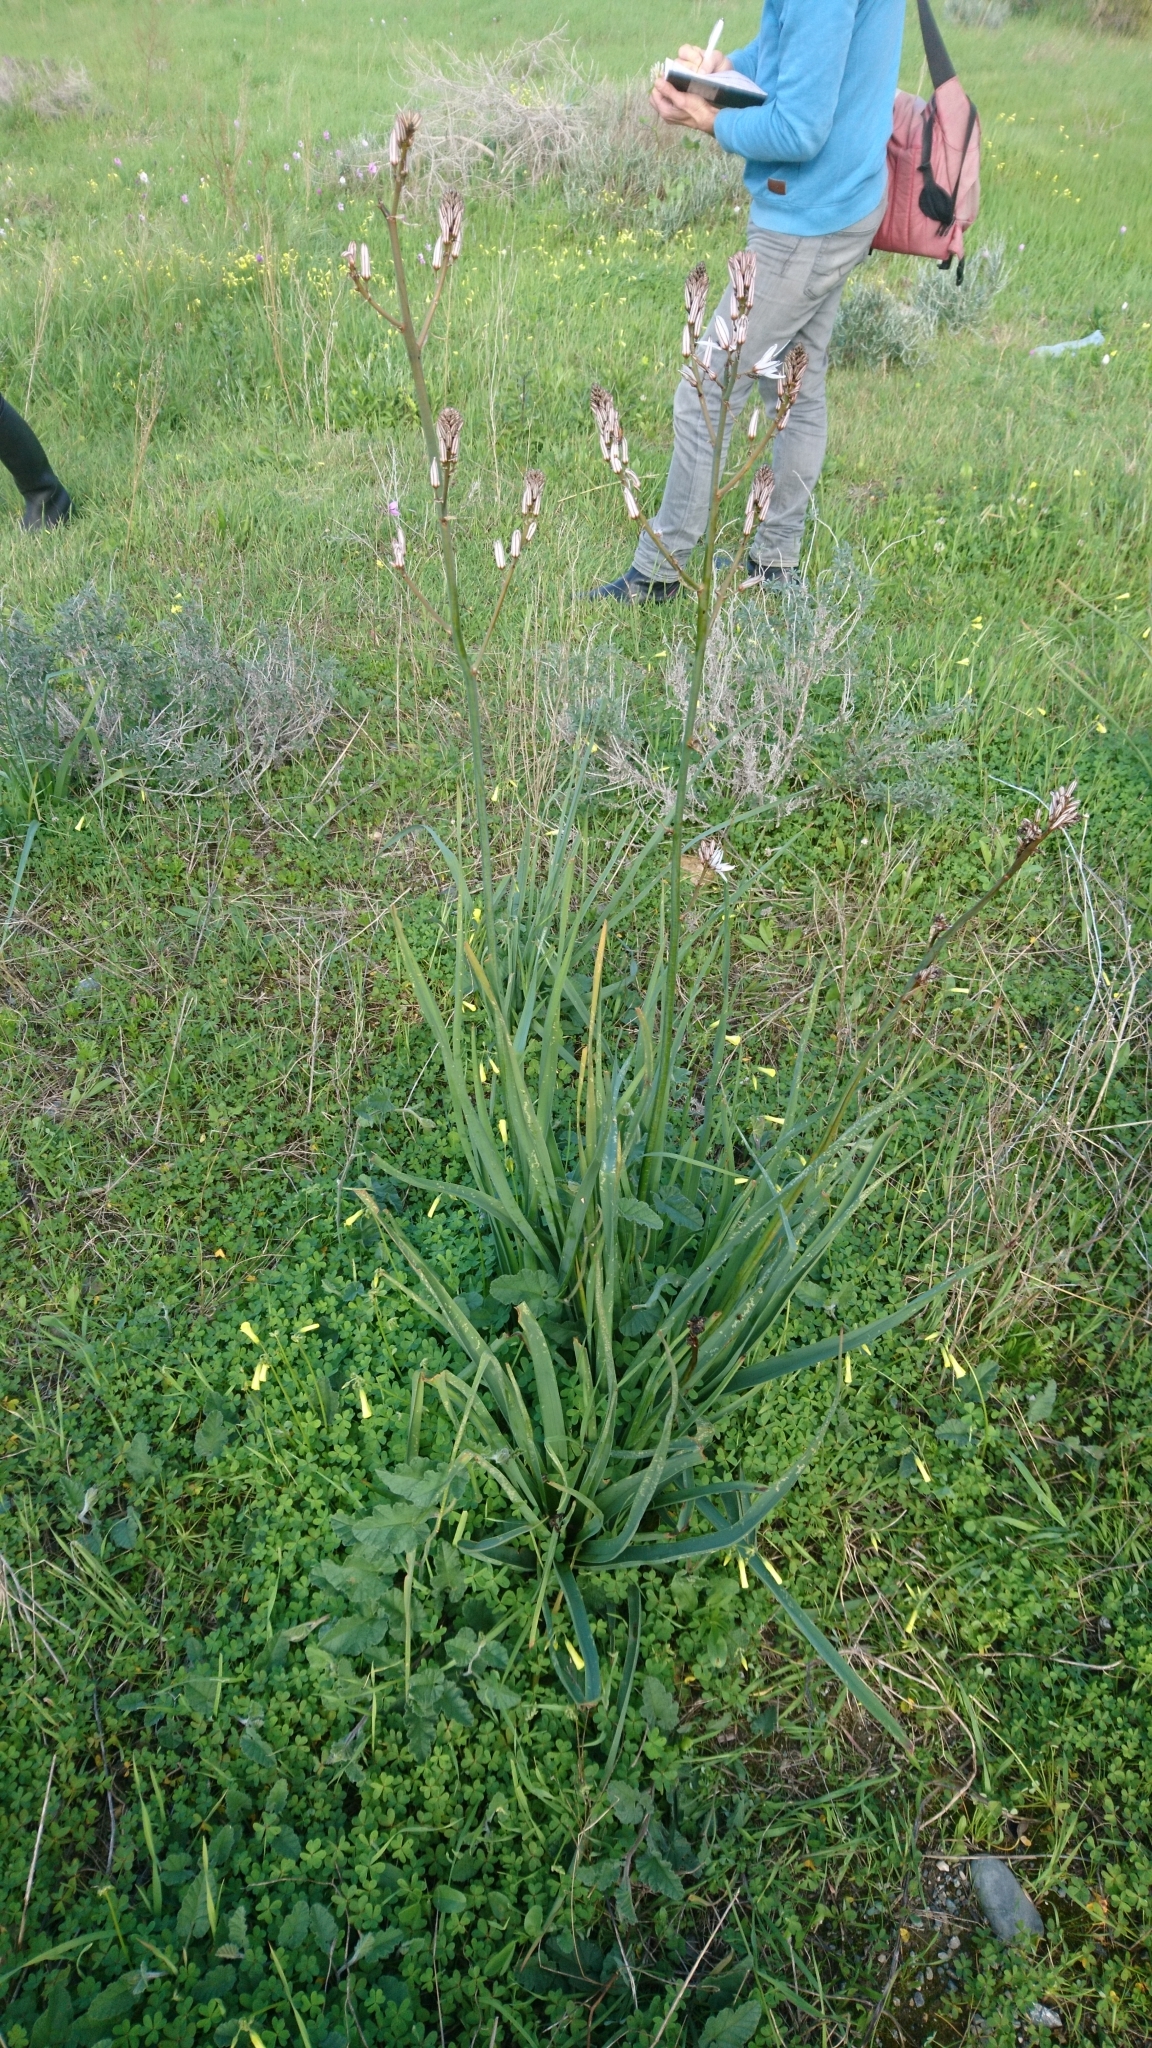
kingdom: Plantae
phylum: Tracheophyta
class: Liliopsida
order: Asparagales
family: Asphodelaceae
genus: Asphodelus
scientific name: Asphodelus ramosus
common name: Silverrod
